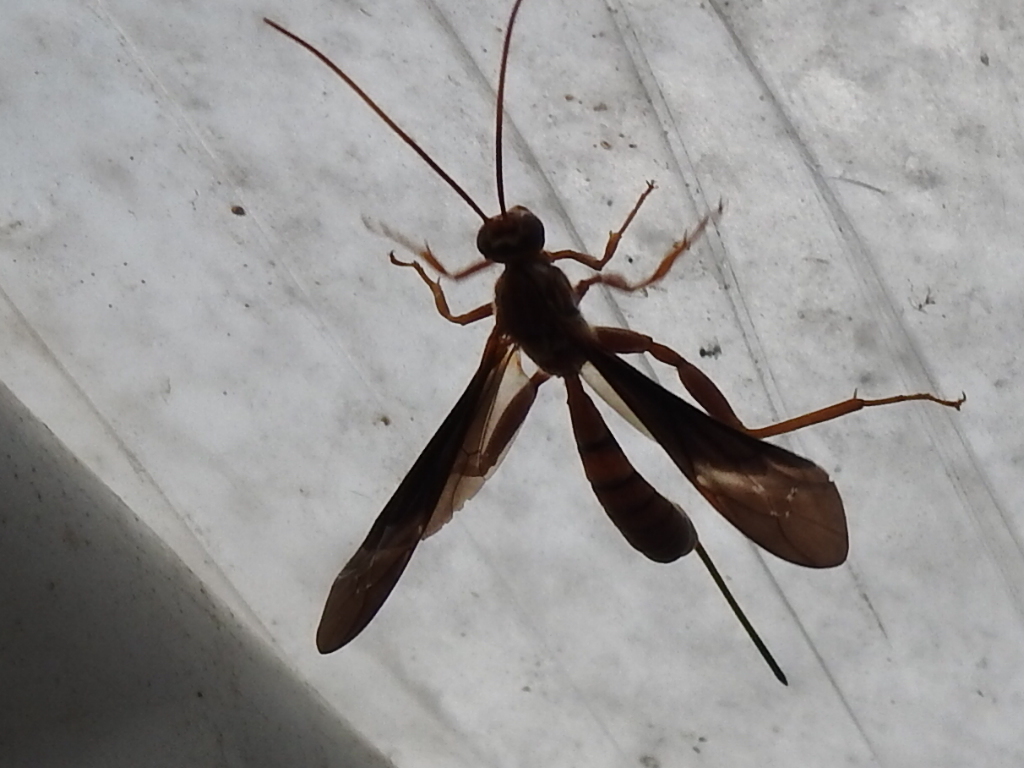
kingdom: Animalia
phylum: Arthropoda
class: Insecta
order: Hymenoptera
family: Ichneumonidae
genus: Labena
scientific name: Labena grallator
